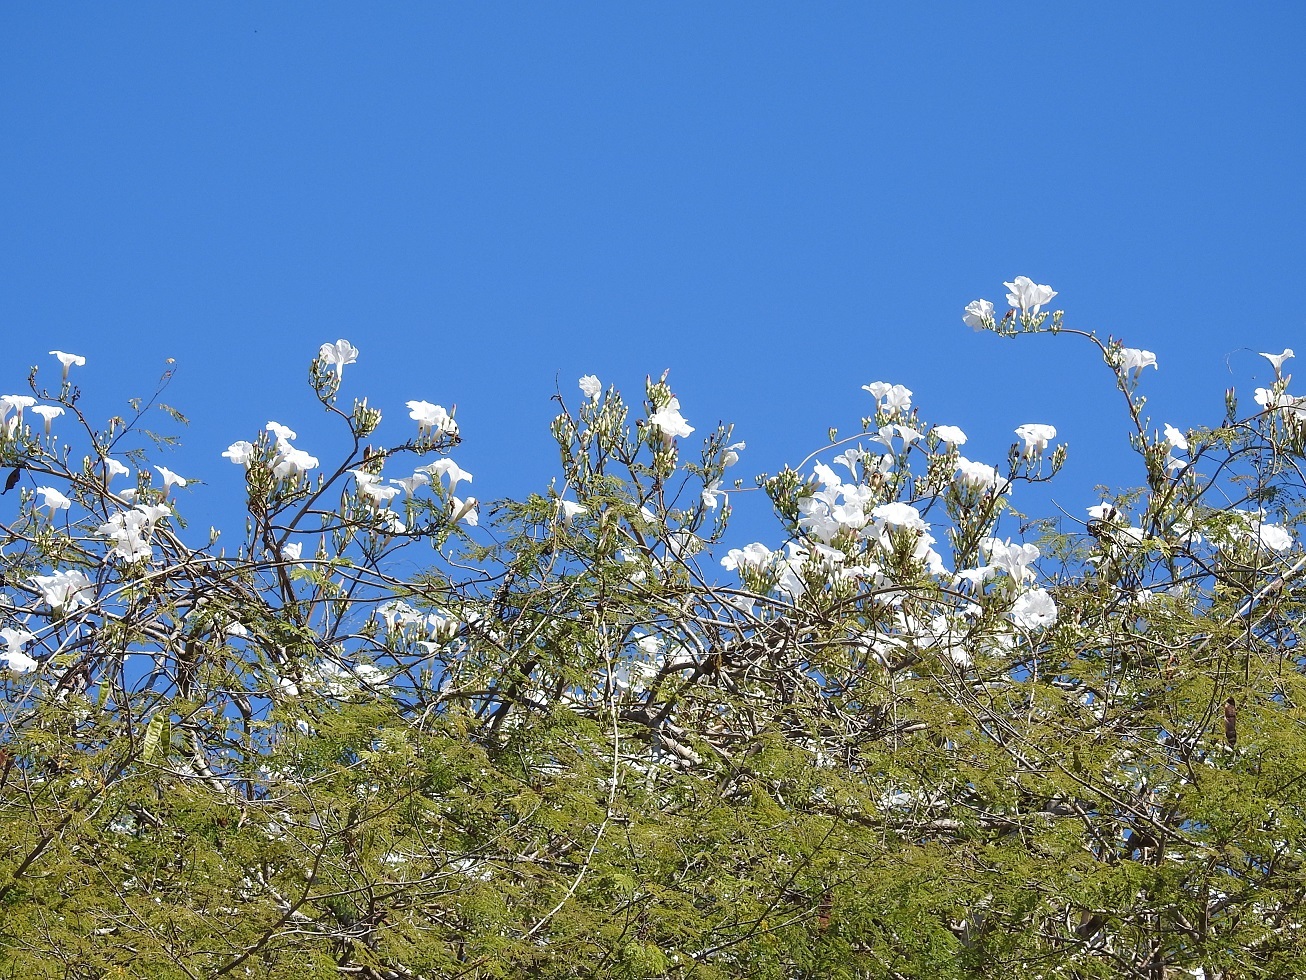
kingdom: Plantae
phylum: Tracheophyta
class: Magnoliopsida
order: Solanales
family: Convolvulaceae
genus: Ipomoea
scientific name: Ipomoea populina
